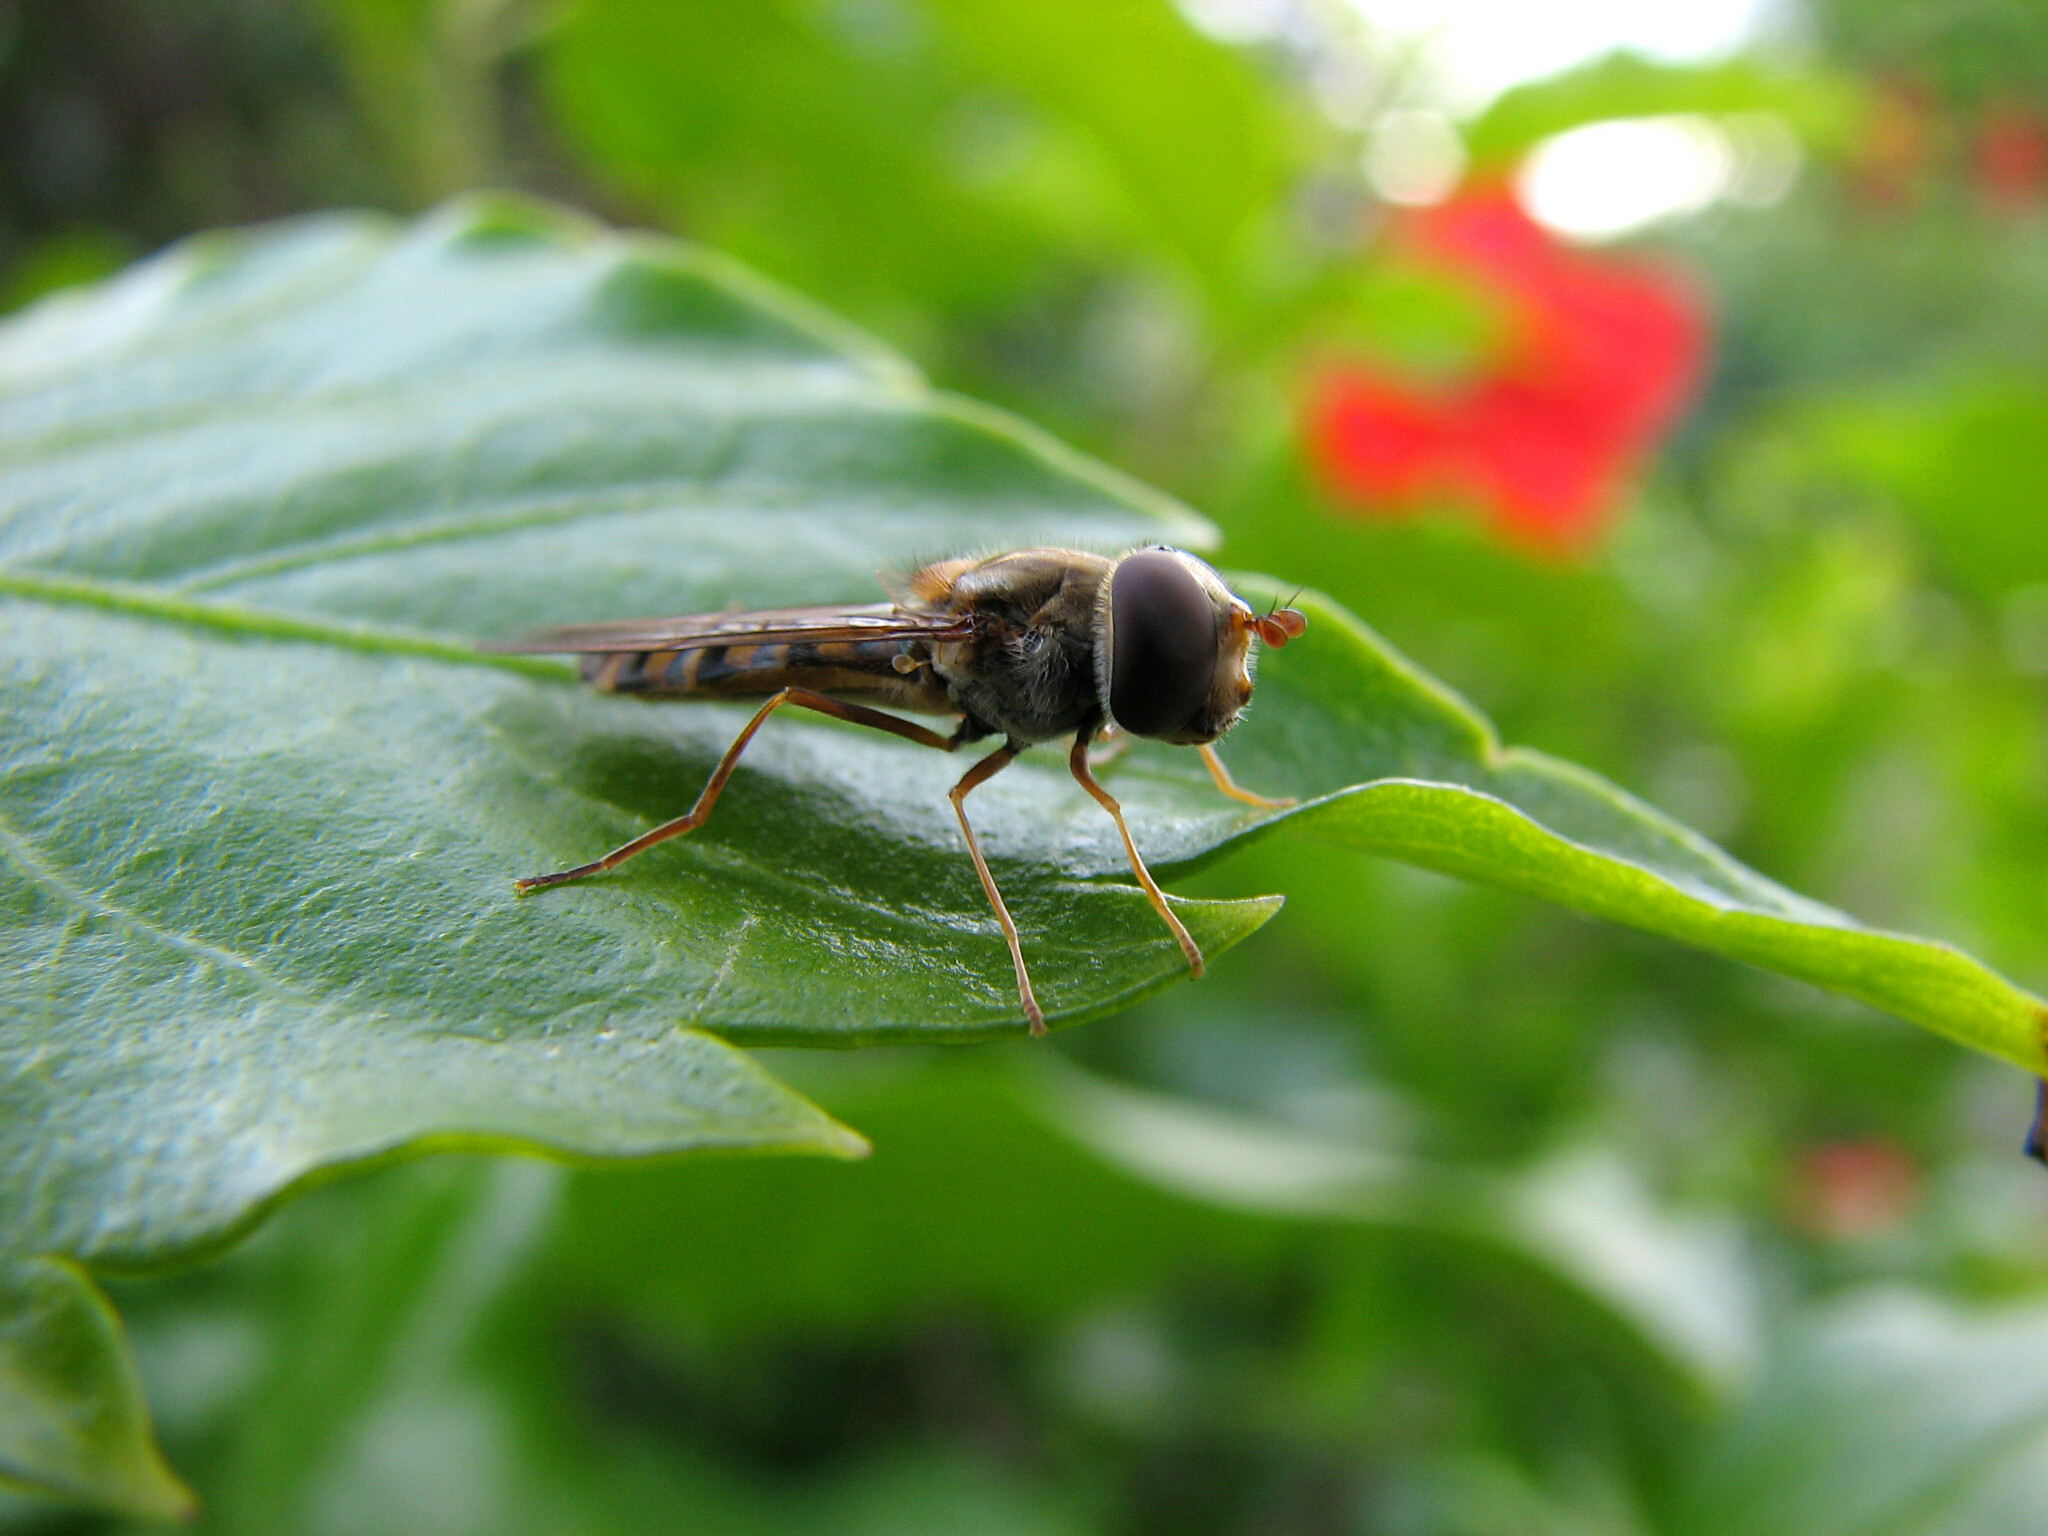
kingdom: Animalia
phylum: Arthropoda
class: Insecta
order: Diptera
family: Syrphidae
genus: Episyrphus
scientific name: Episyrphus balteatus
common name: Marmalade hoverfly
